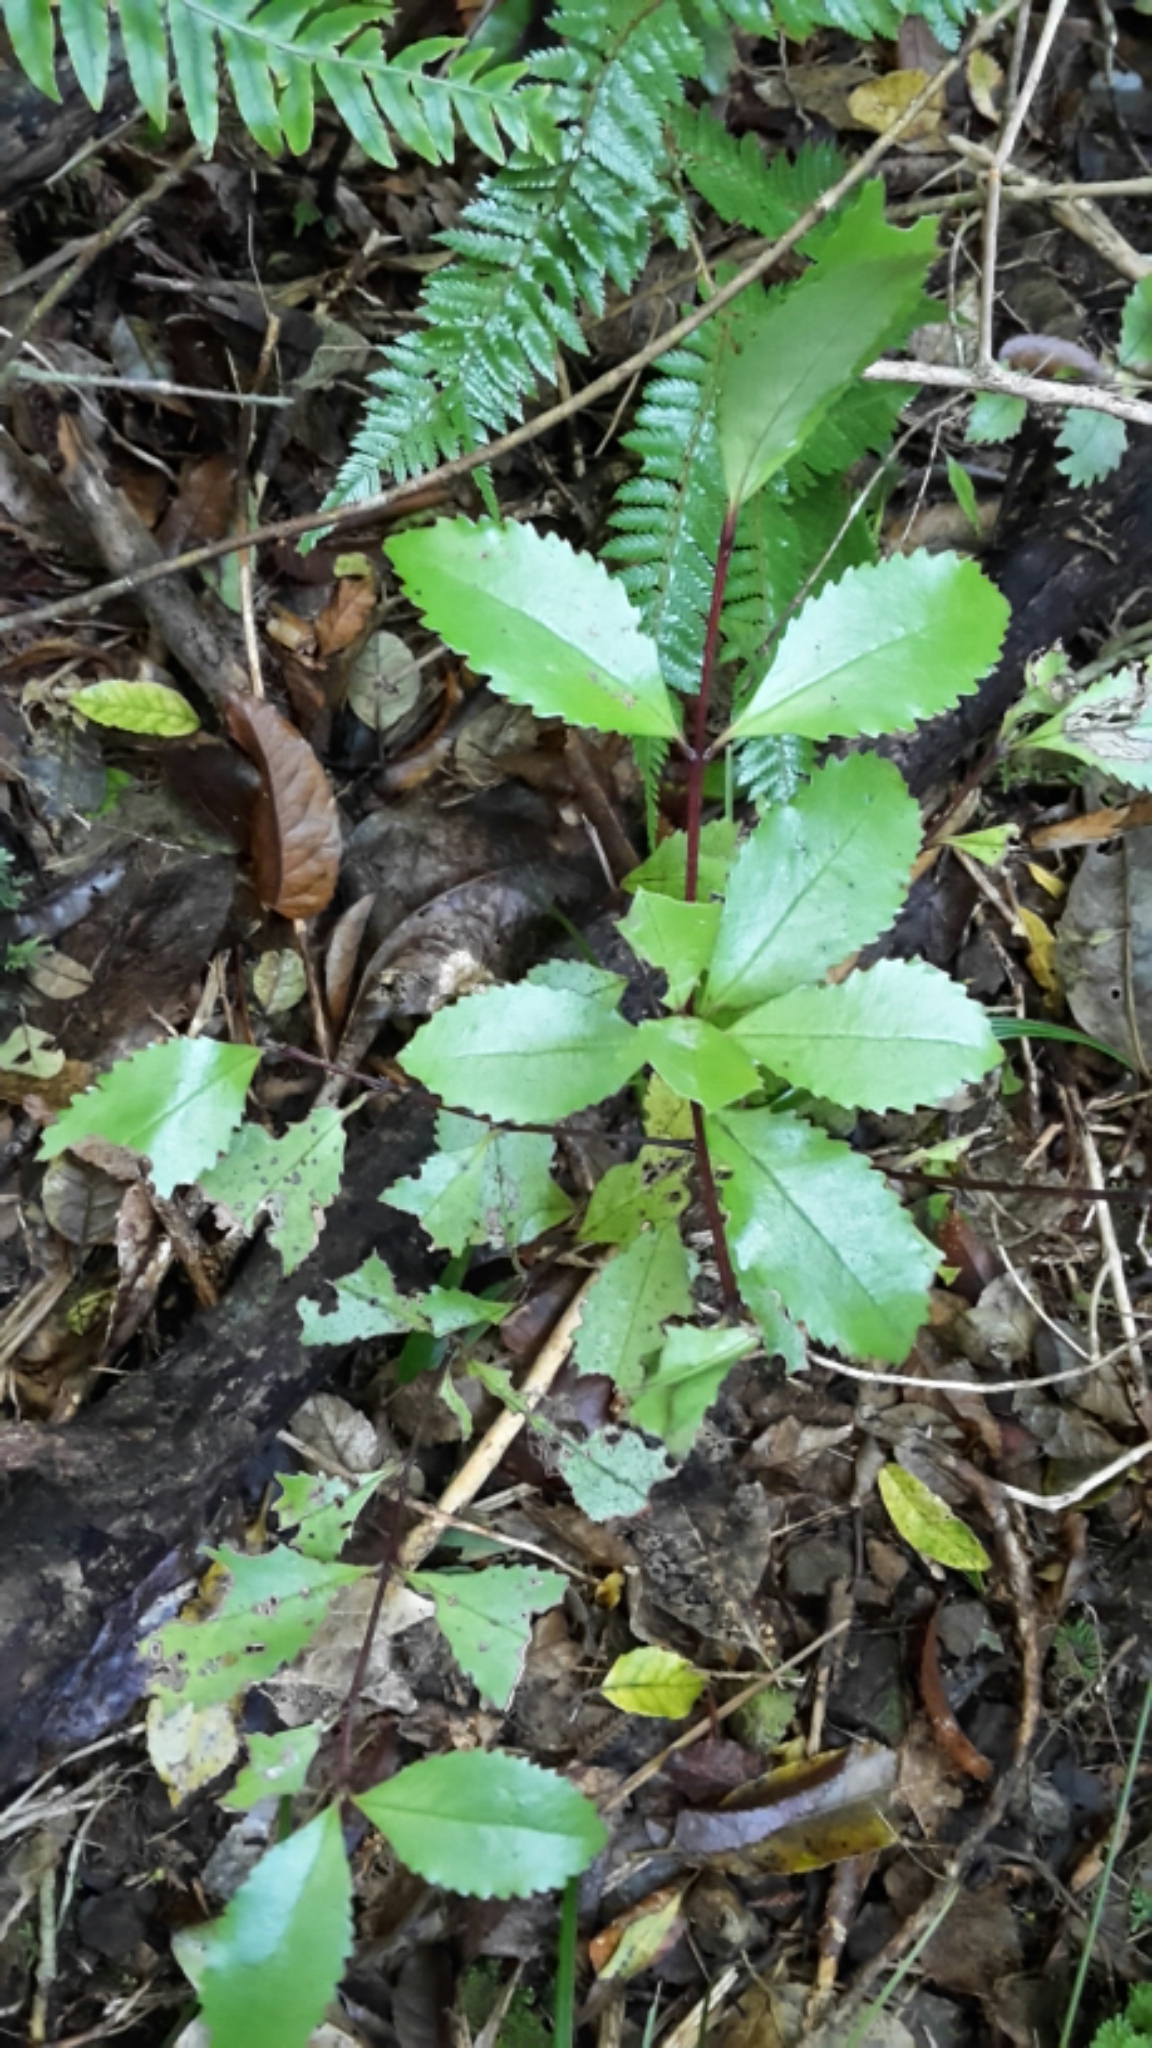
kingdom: Plantae
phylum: Tracheophyta
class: Magnoliopsida
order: Laurales
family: Atherospermataceae
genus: Laurelia
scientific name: Laurelia novae-zelandiae
